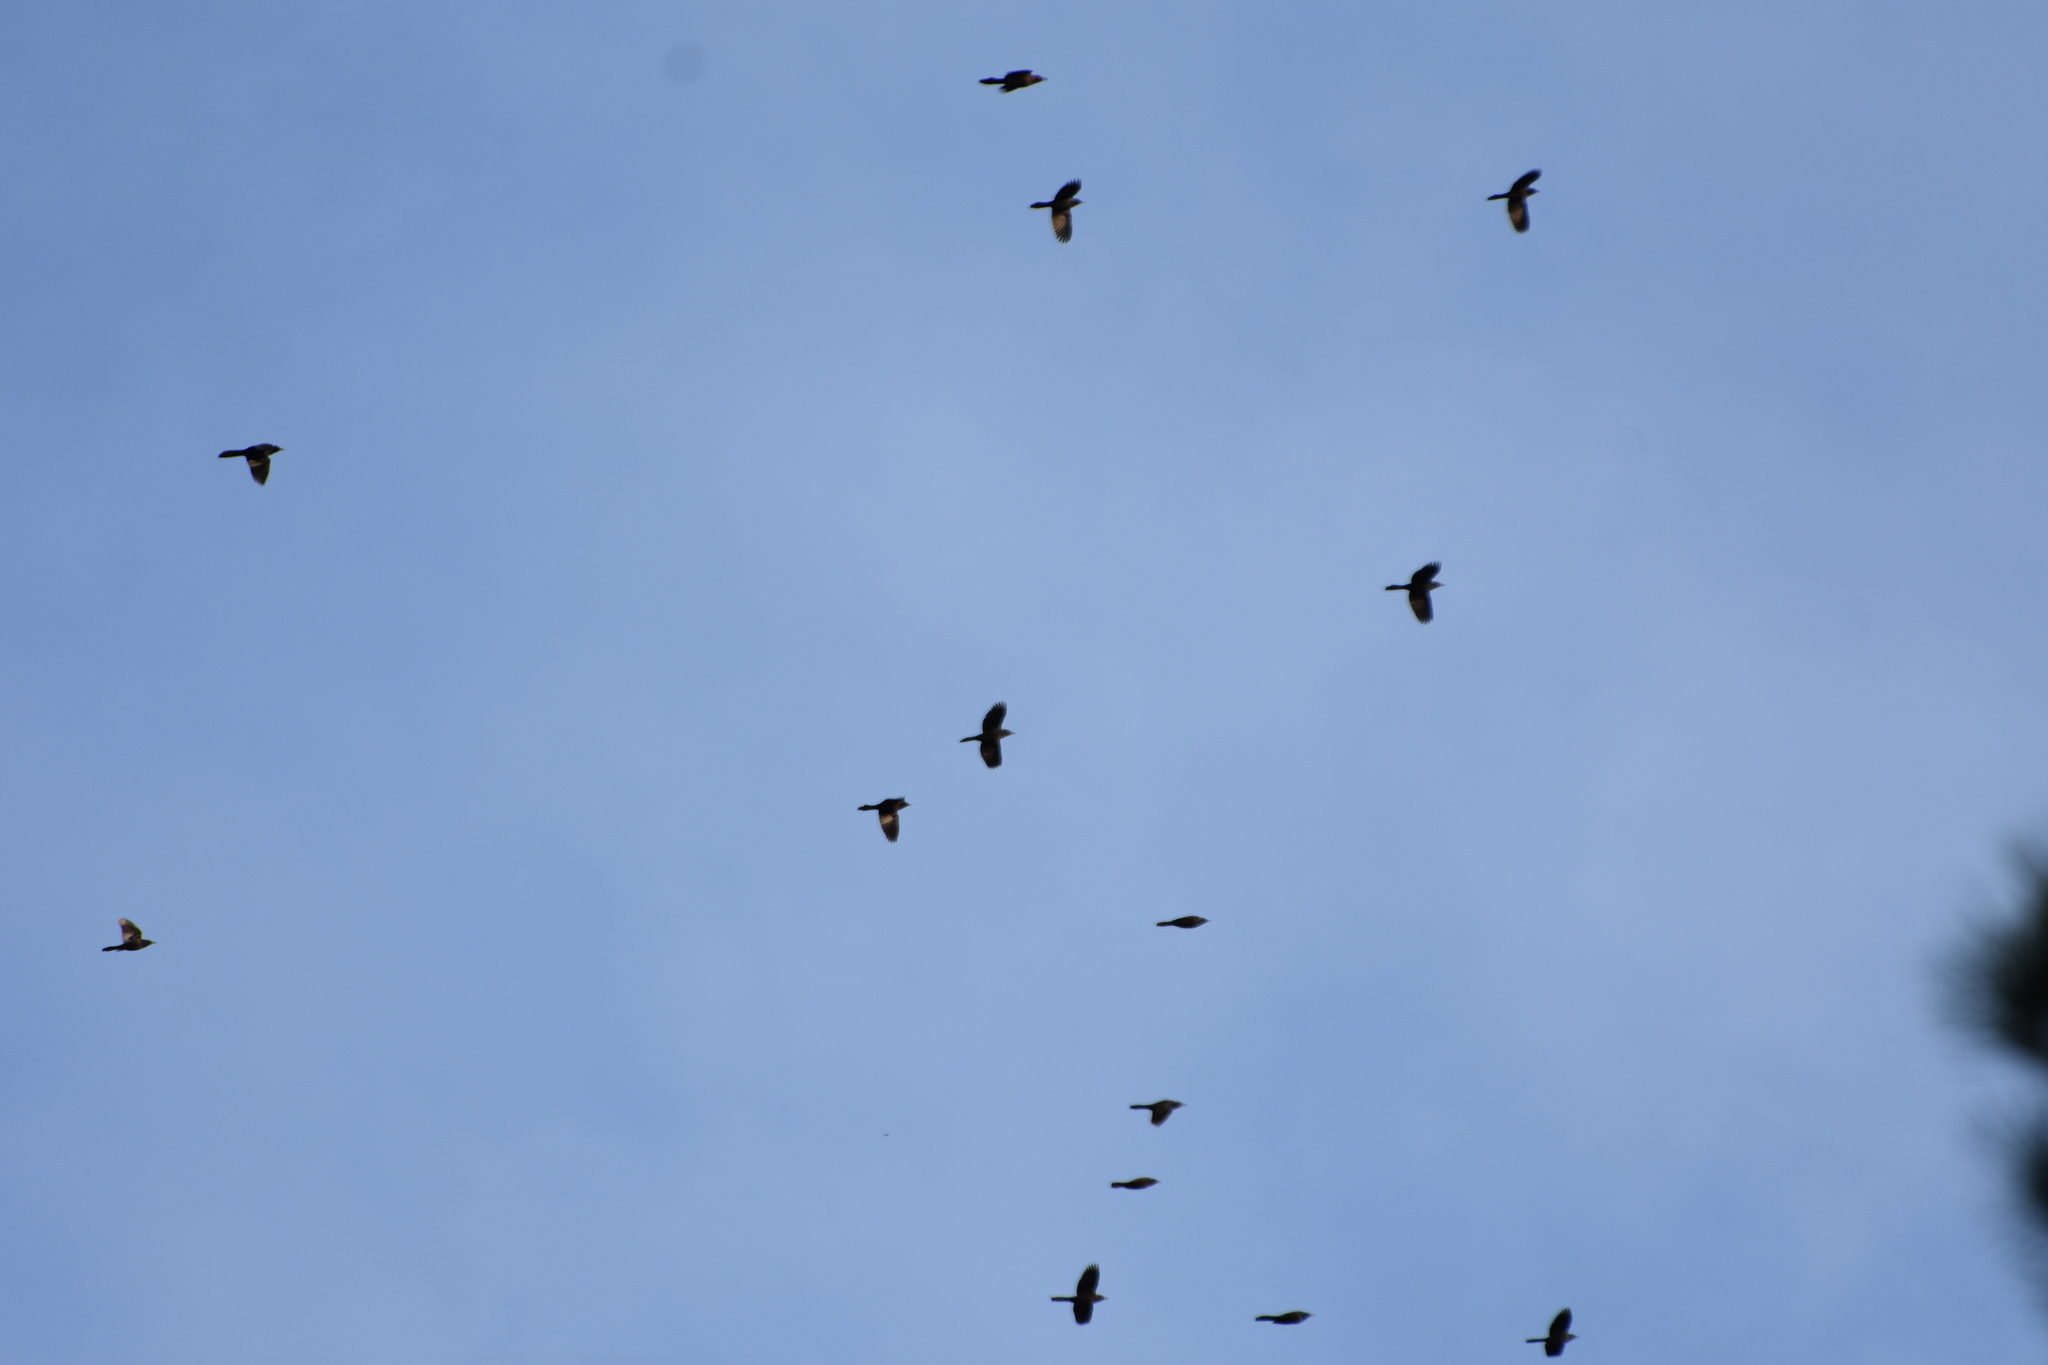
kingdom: Animalia
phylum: Chordata
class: Aves
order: Passeriformes
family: Icteridae
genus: Quiscalus
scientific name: Quiscalus quiscula
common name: Common grackle
